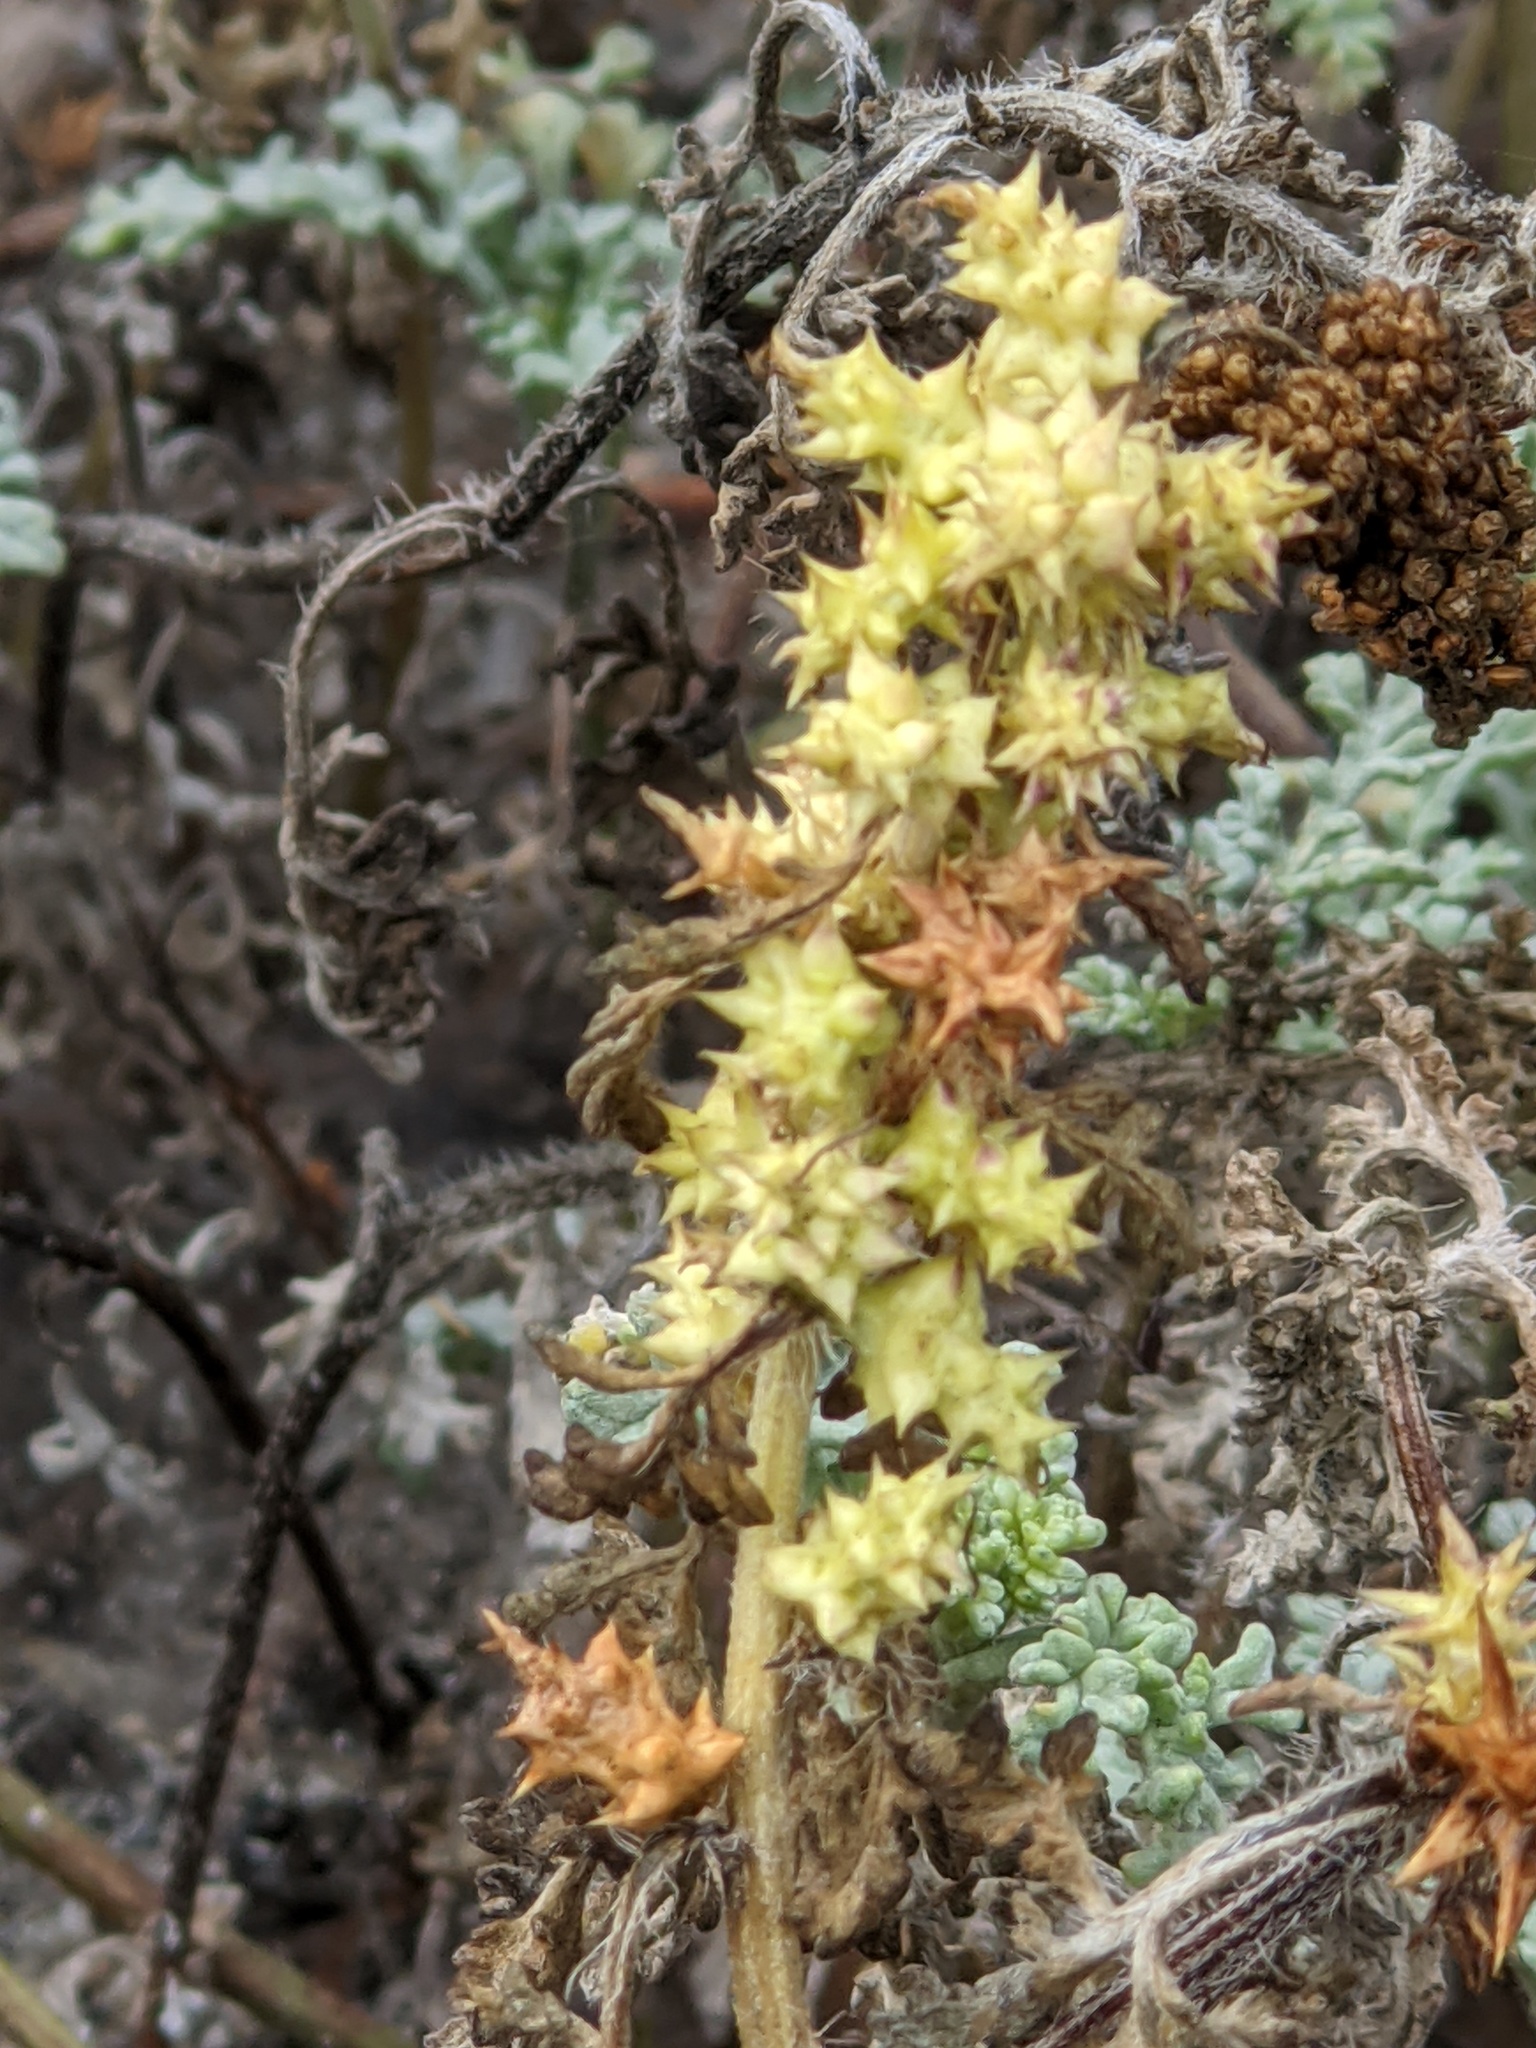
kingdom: Plantae
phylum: Tracheophyta
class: Magnoliopsida
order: Asterales
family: Asteraceae
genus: Ambrosia
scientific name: Ambrosia chamissonis
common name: Beachbur
